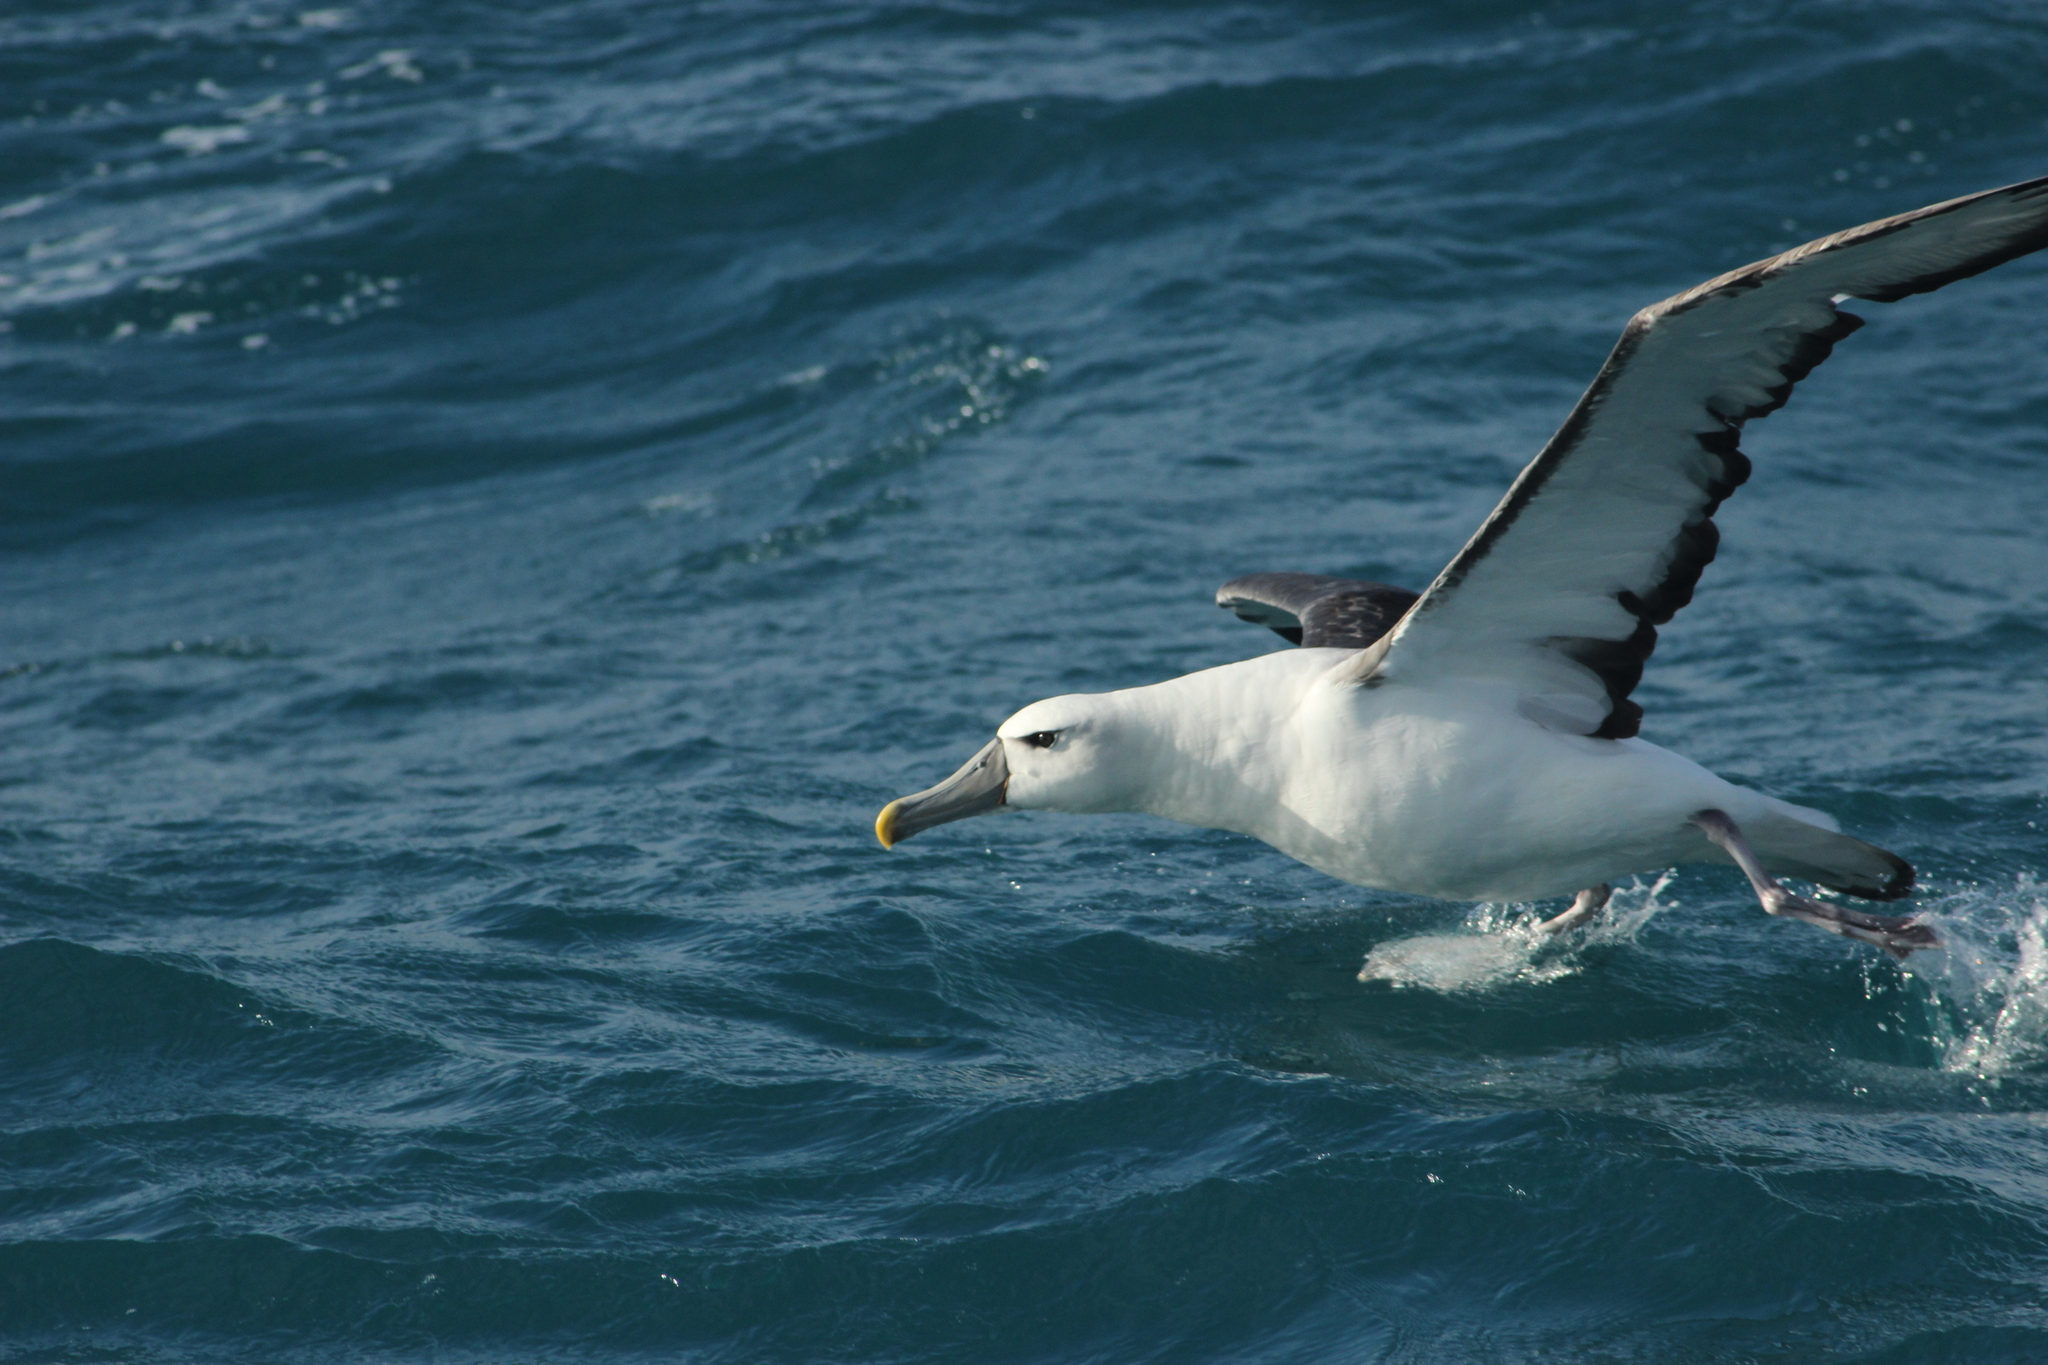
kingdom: Animalia
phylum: Chordata
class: Aves
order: Procellariiformes
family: Diomedeidae
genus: Thalassarche
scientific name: Thalassarche cauta
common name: Shy albatross
